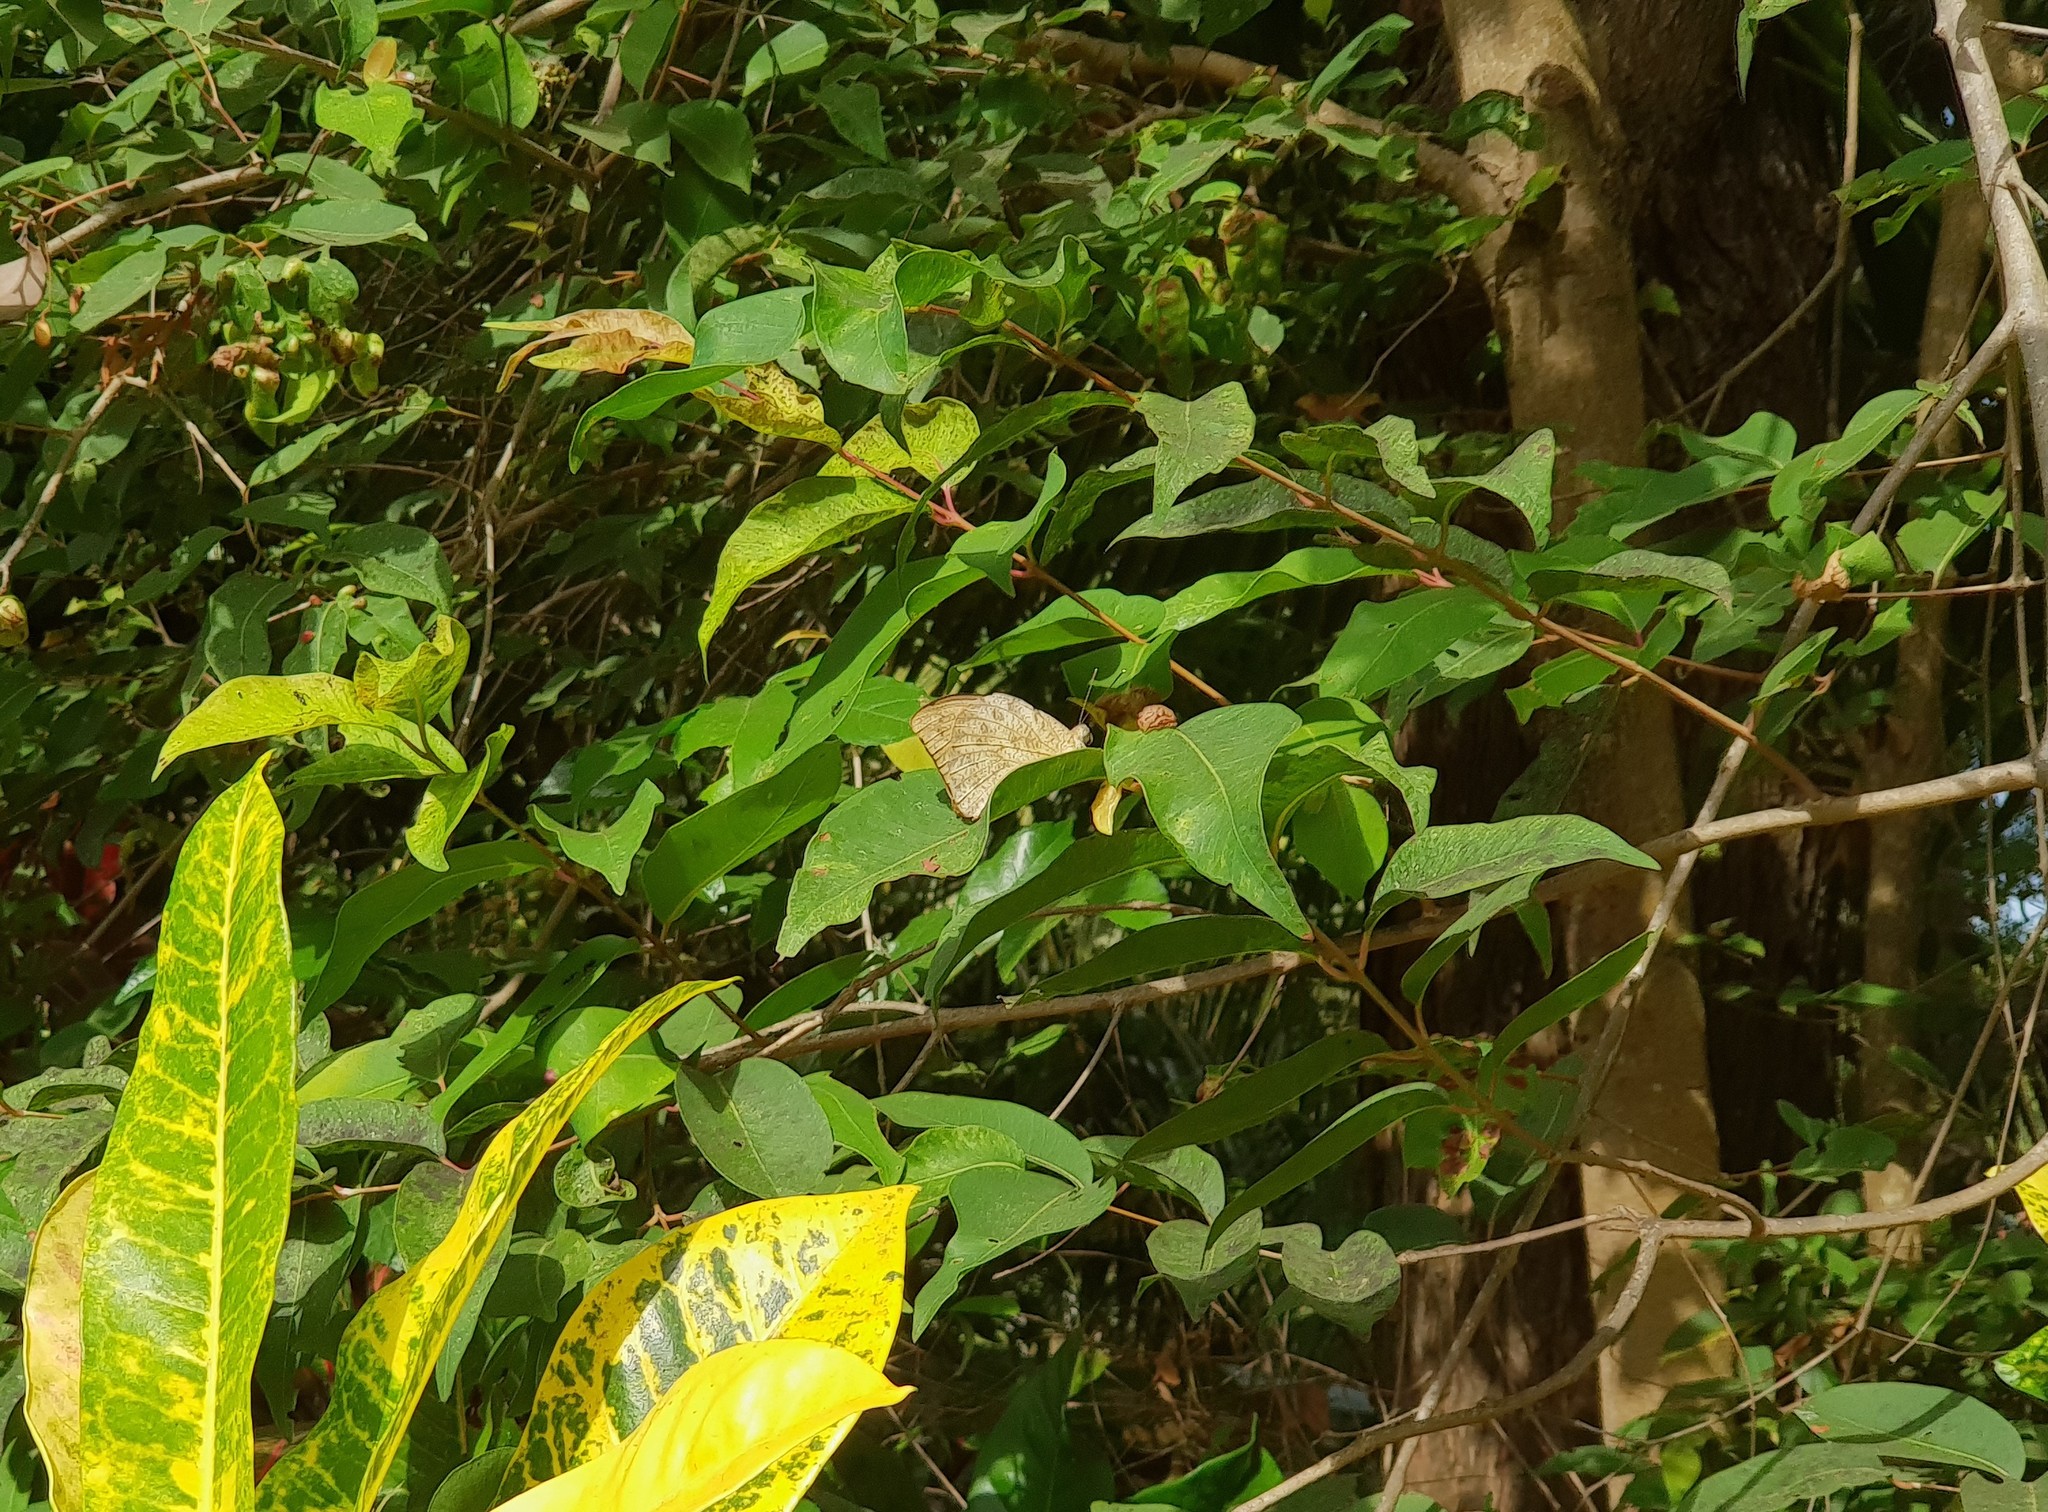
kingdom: Animalia
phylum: Arthropoda
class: Insecta
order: Lepidoptera
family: Pieridae
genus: Hebomoia
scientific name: Hebomoia glaucippe
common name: Great orange tip
